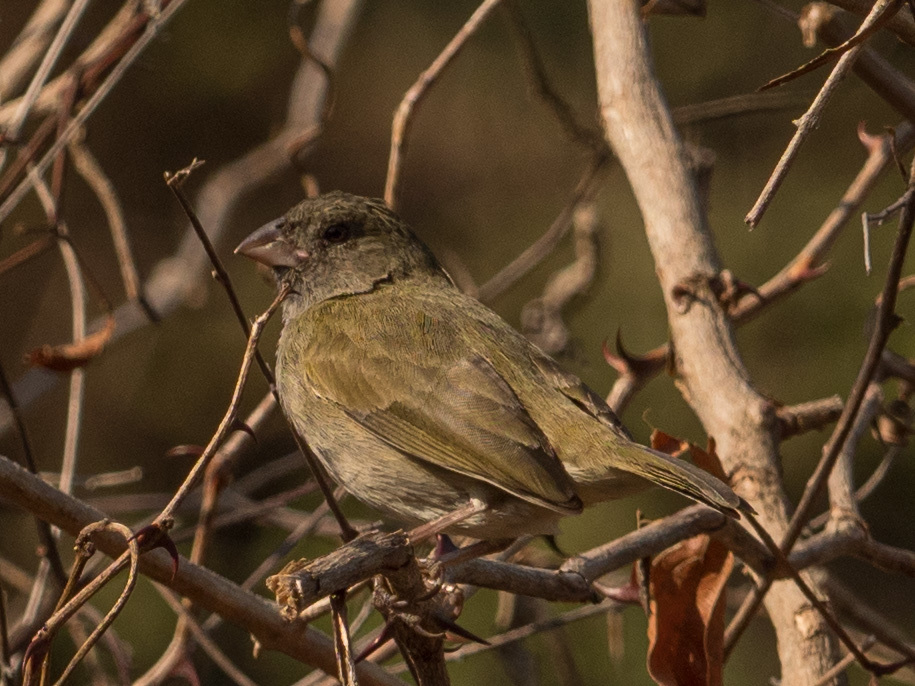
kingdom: Animalia
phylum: Chordata
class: Aves
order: Passeriformes
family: Thraupidae
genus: Melanospiza
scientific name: Melanospiza bicolor
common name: Black-faced grassquit
